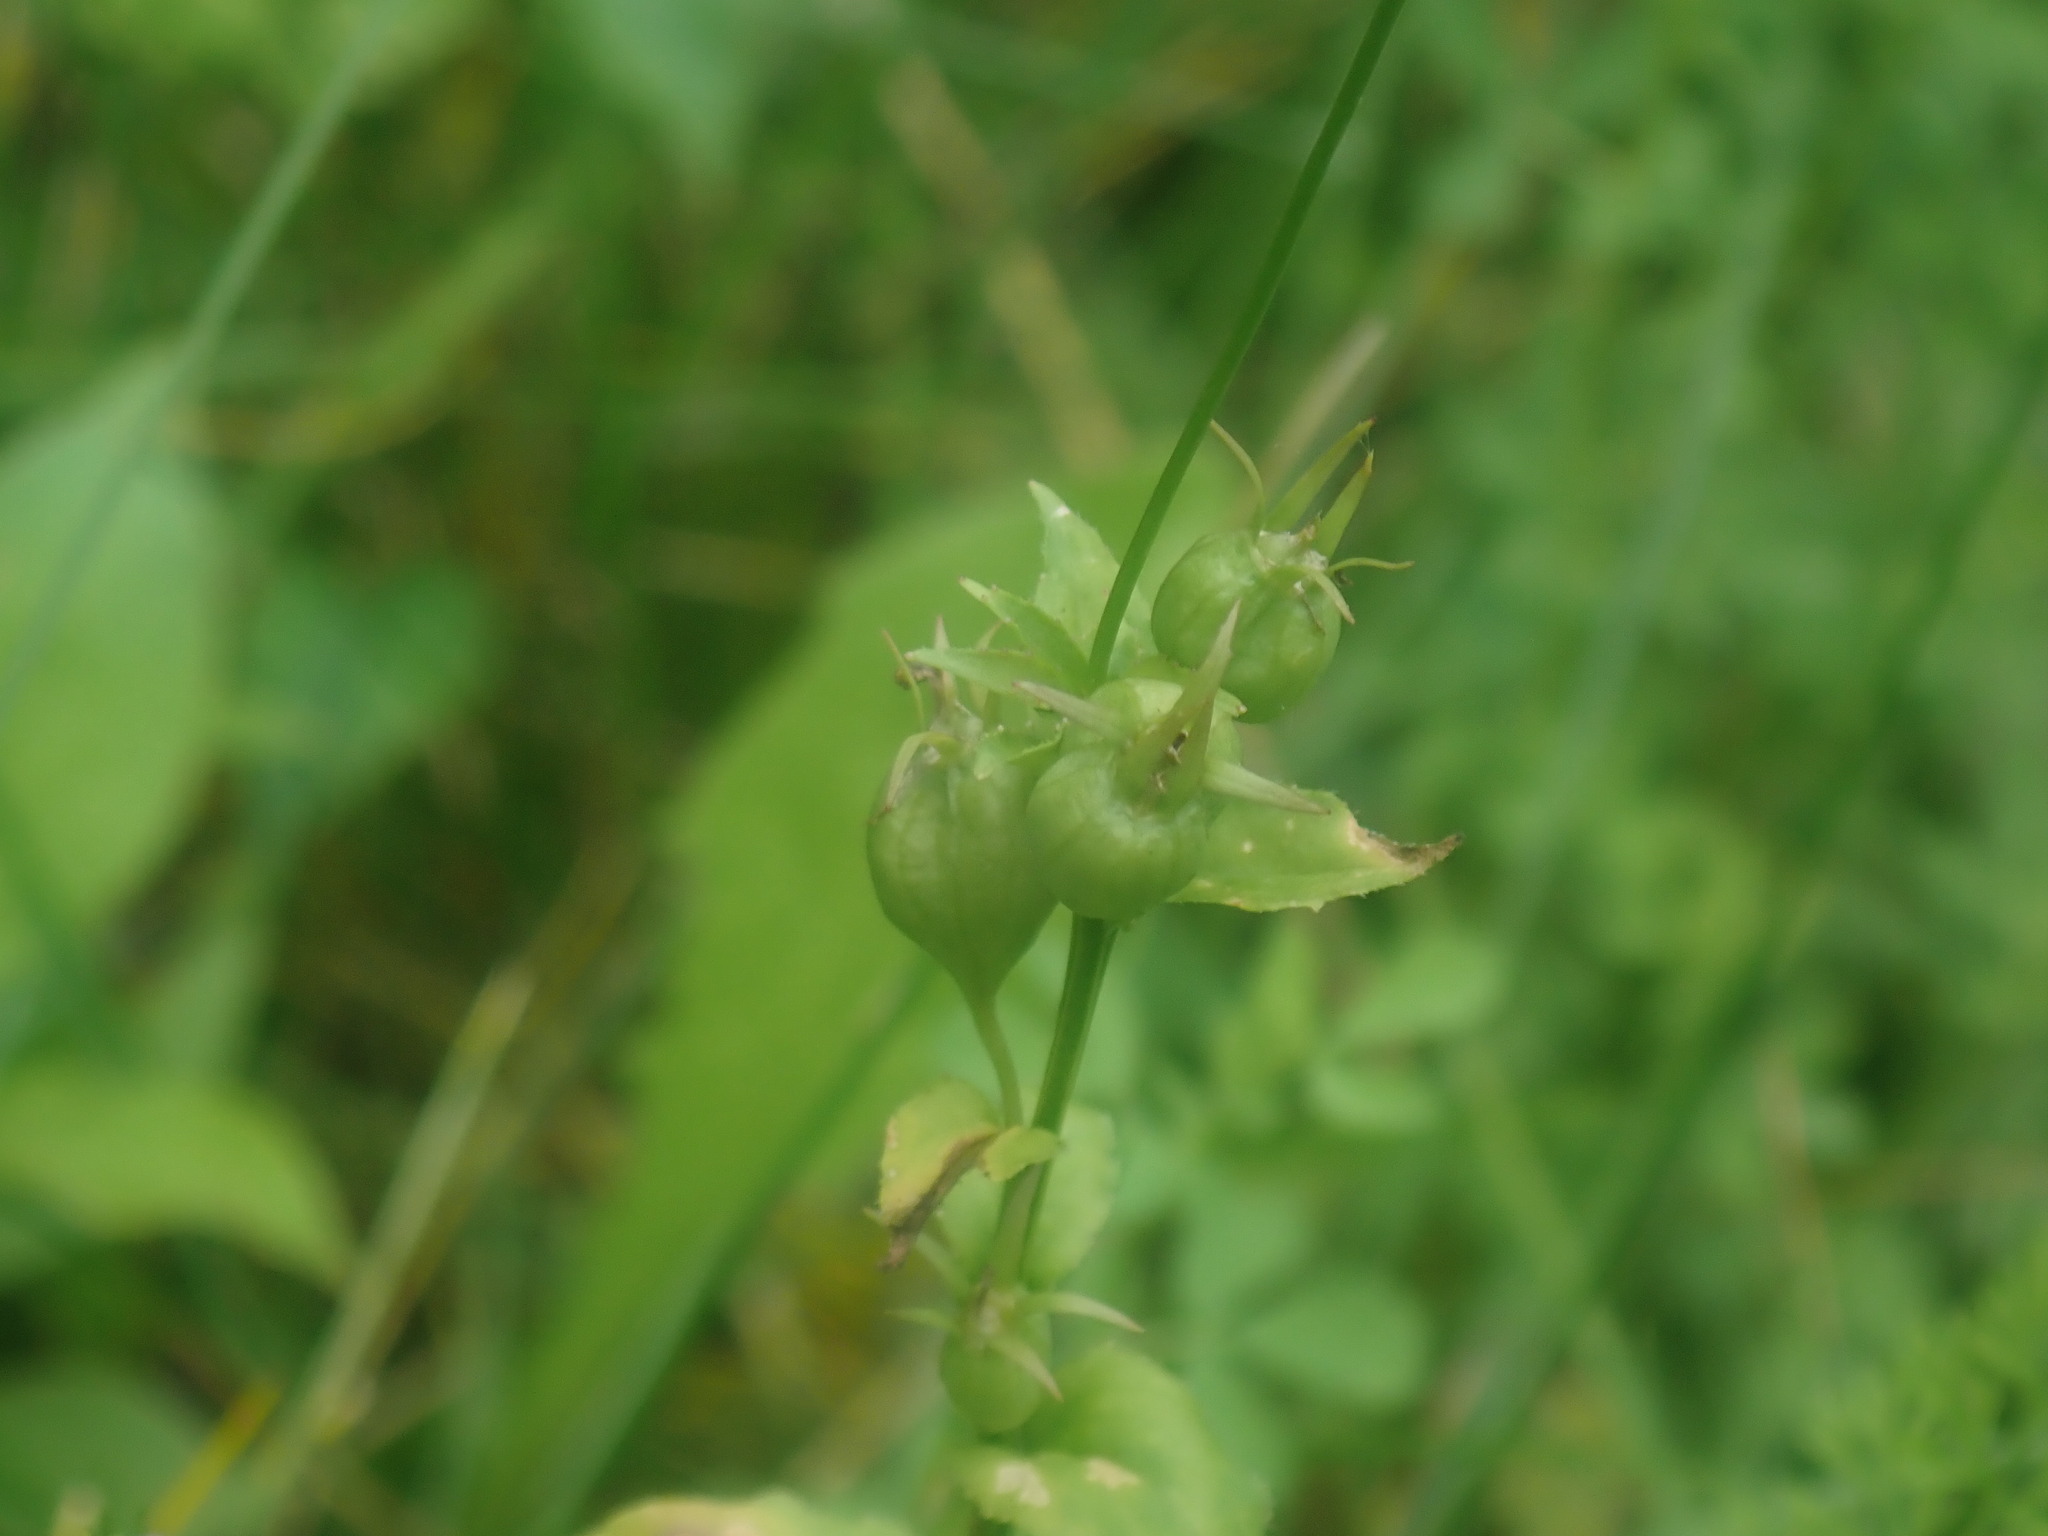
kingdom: Plantae
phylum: Tracheophyta
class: Magnoliopsida
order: Asterales
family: Campanulaceae
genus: Lobelia
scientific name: Lobelia inflata
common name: Indian tobacco
